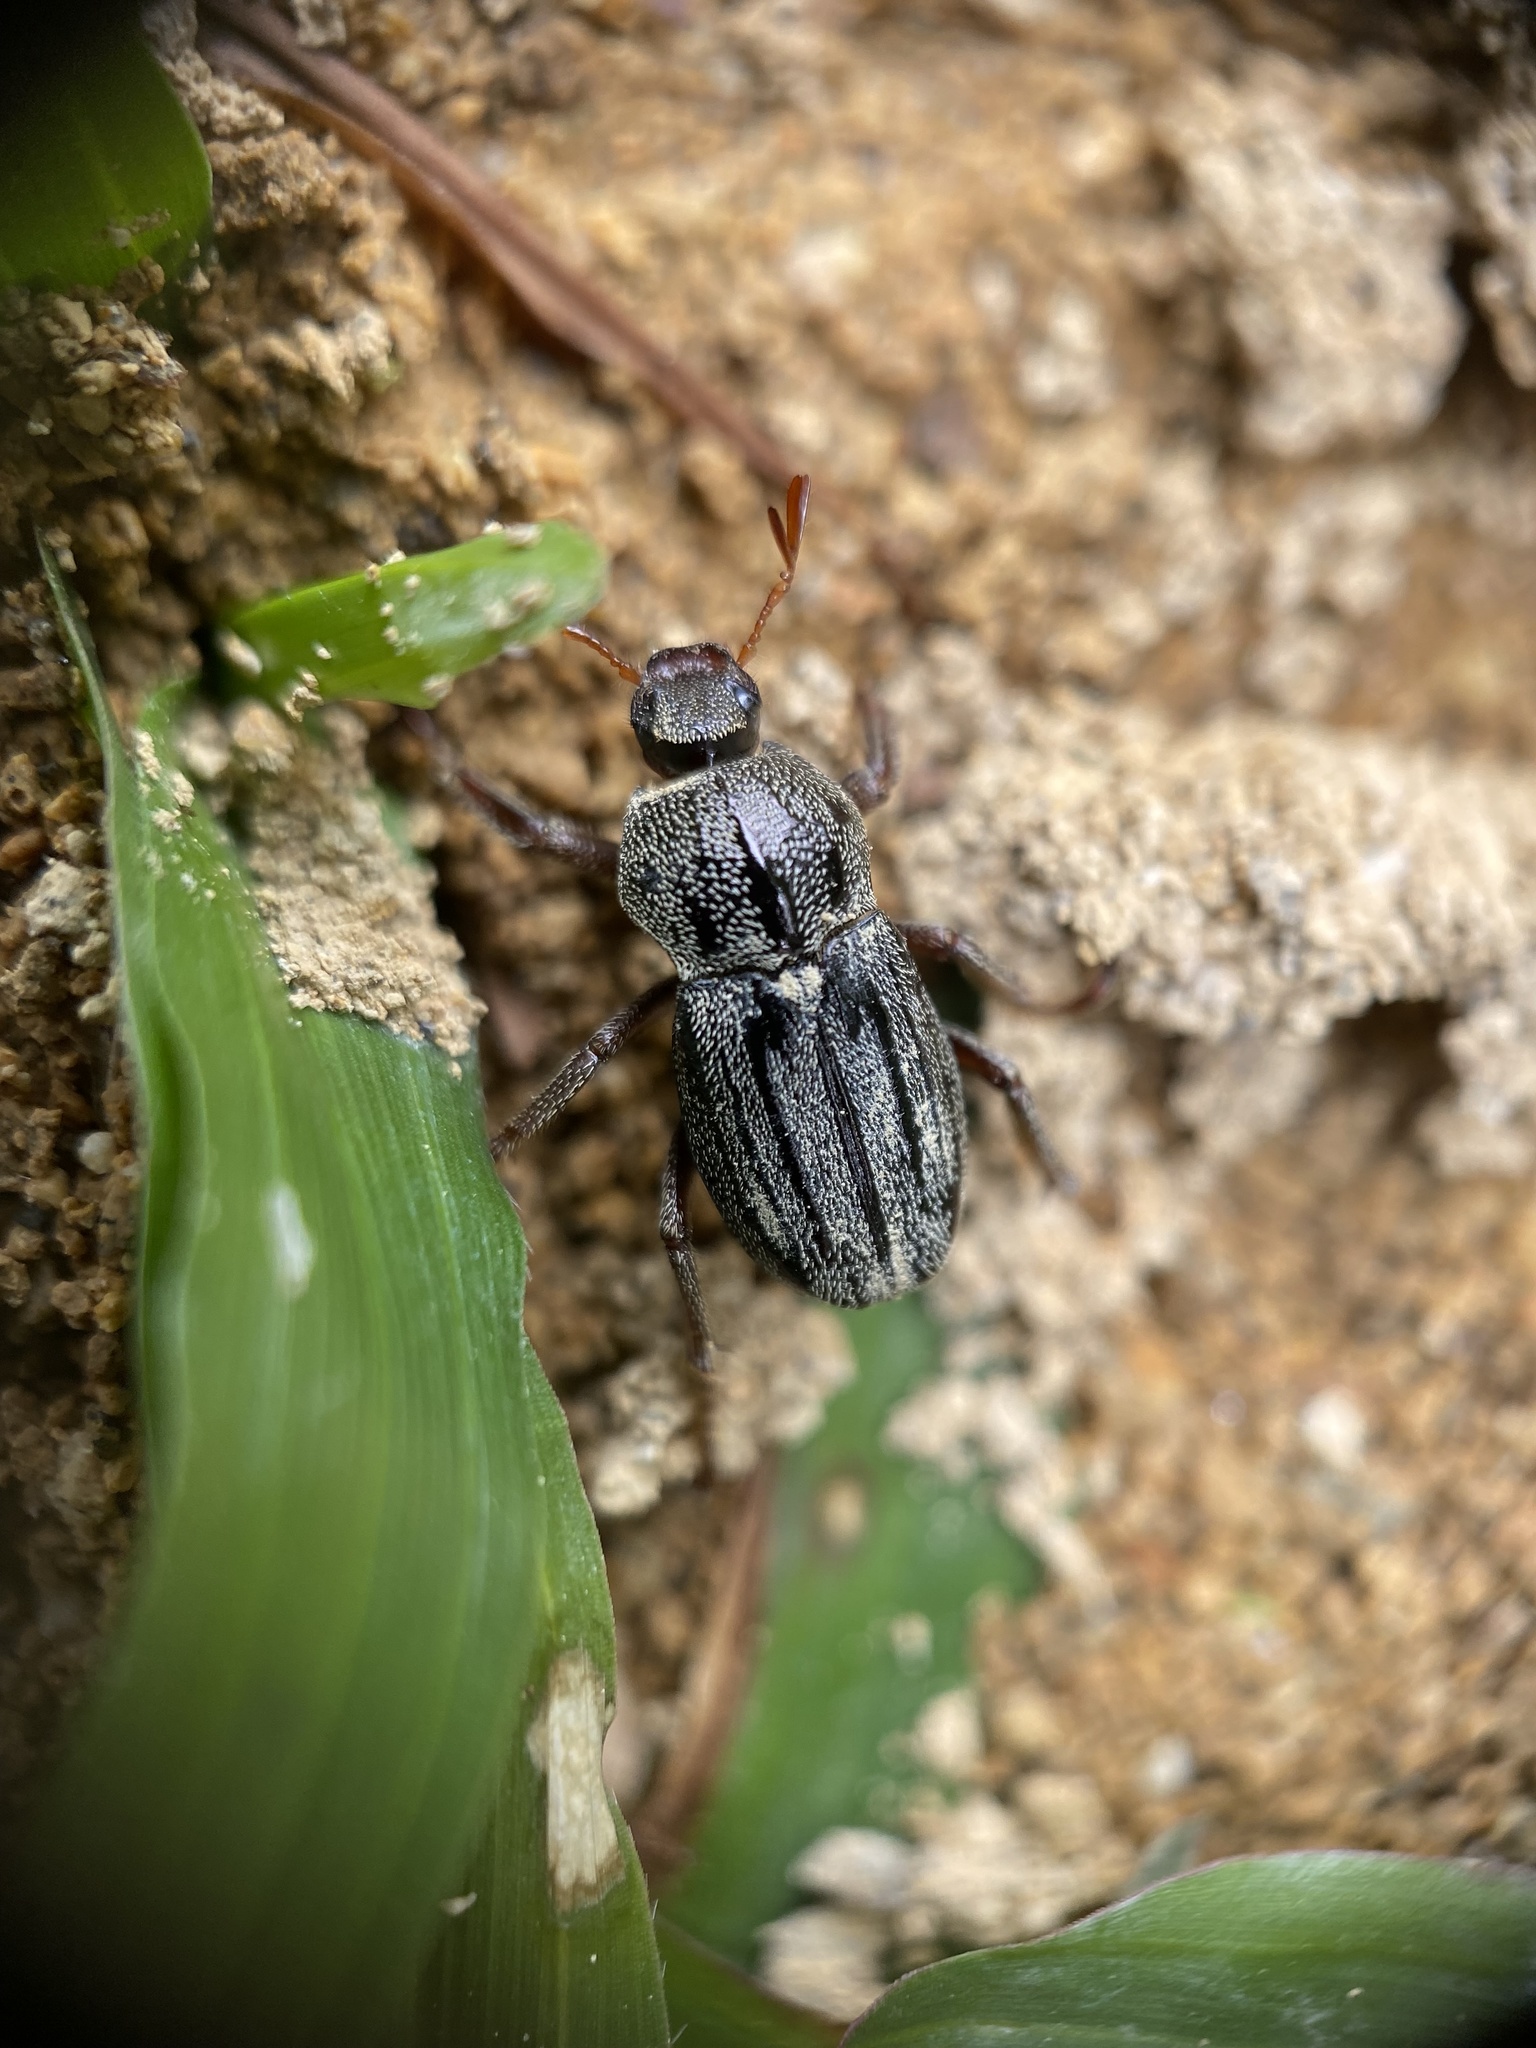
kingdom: Animalia
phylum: Arthropoda
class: Insecta
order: Coleoptera
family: Scarabaeidae
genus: Faula
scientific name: Faula centralis
